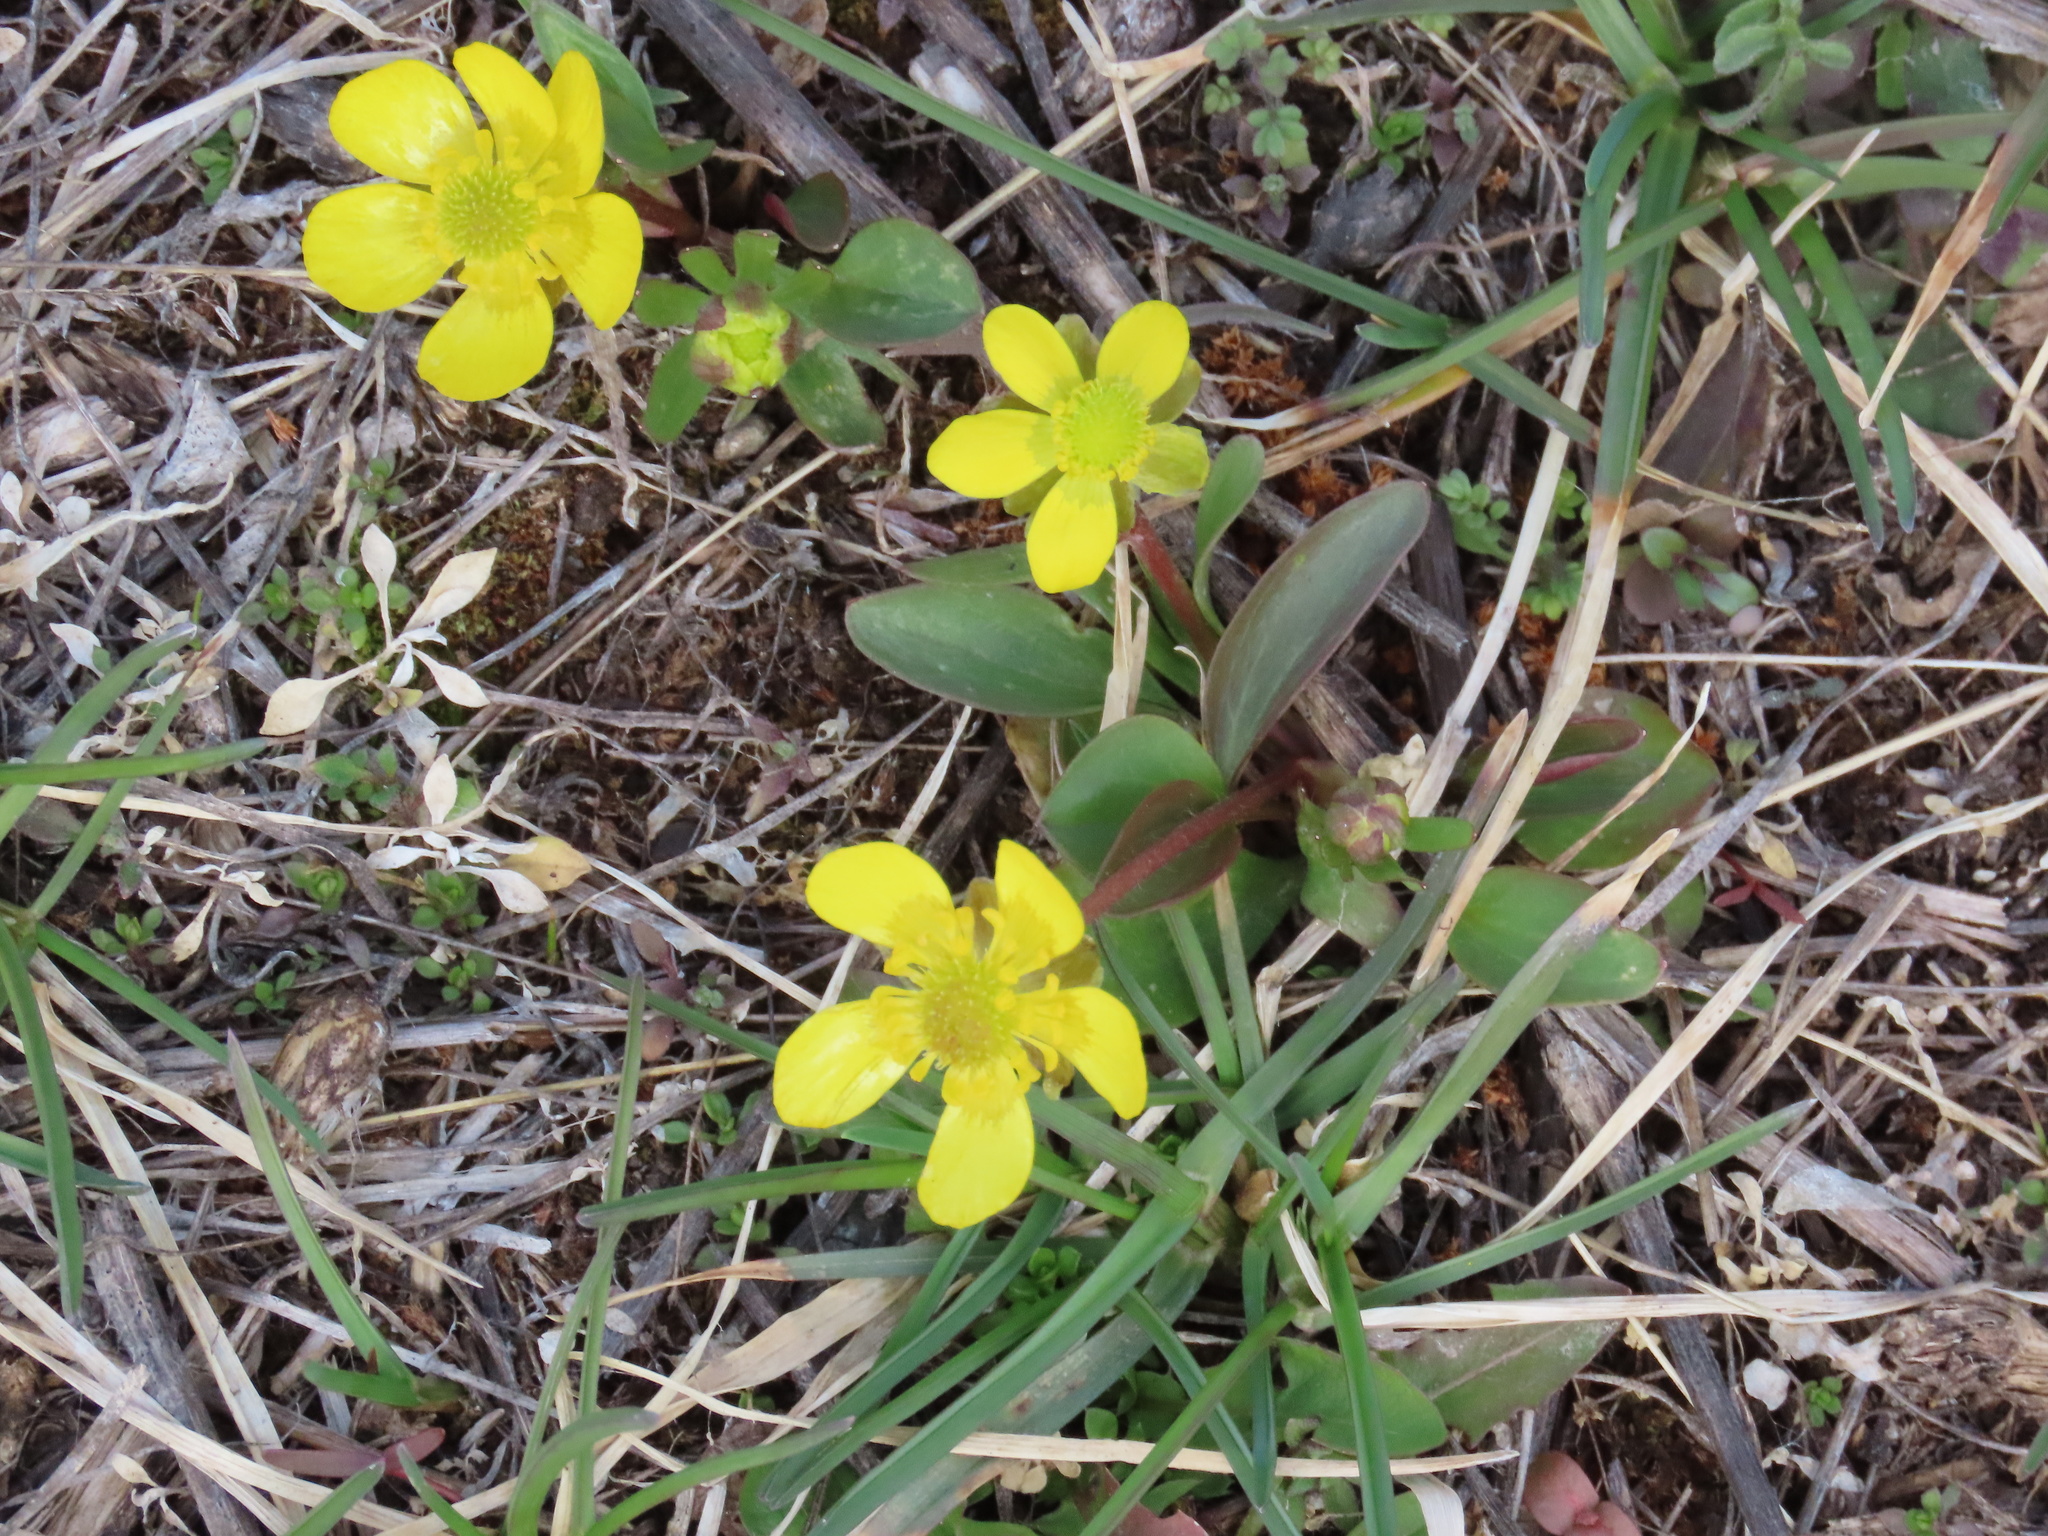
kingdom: Plantae
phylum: Tracheophyta
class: Magnoliopsida
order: Ranunculales
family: Ranunculaceae
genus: Ranunculus
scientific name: Ranunculus glaberrimus
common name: Sagebrush buttercup
